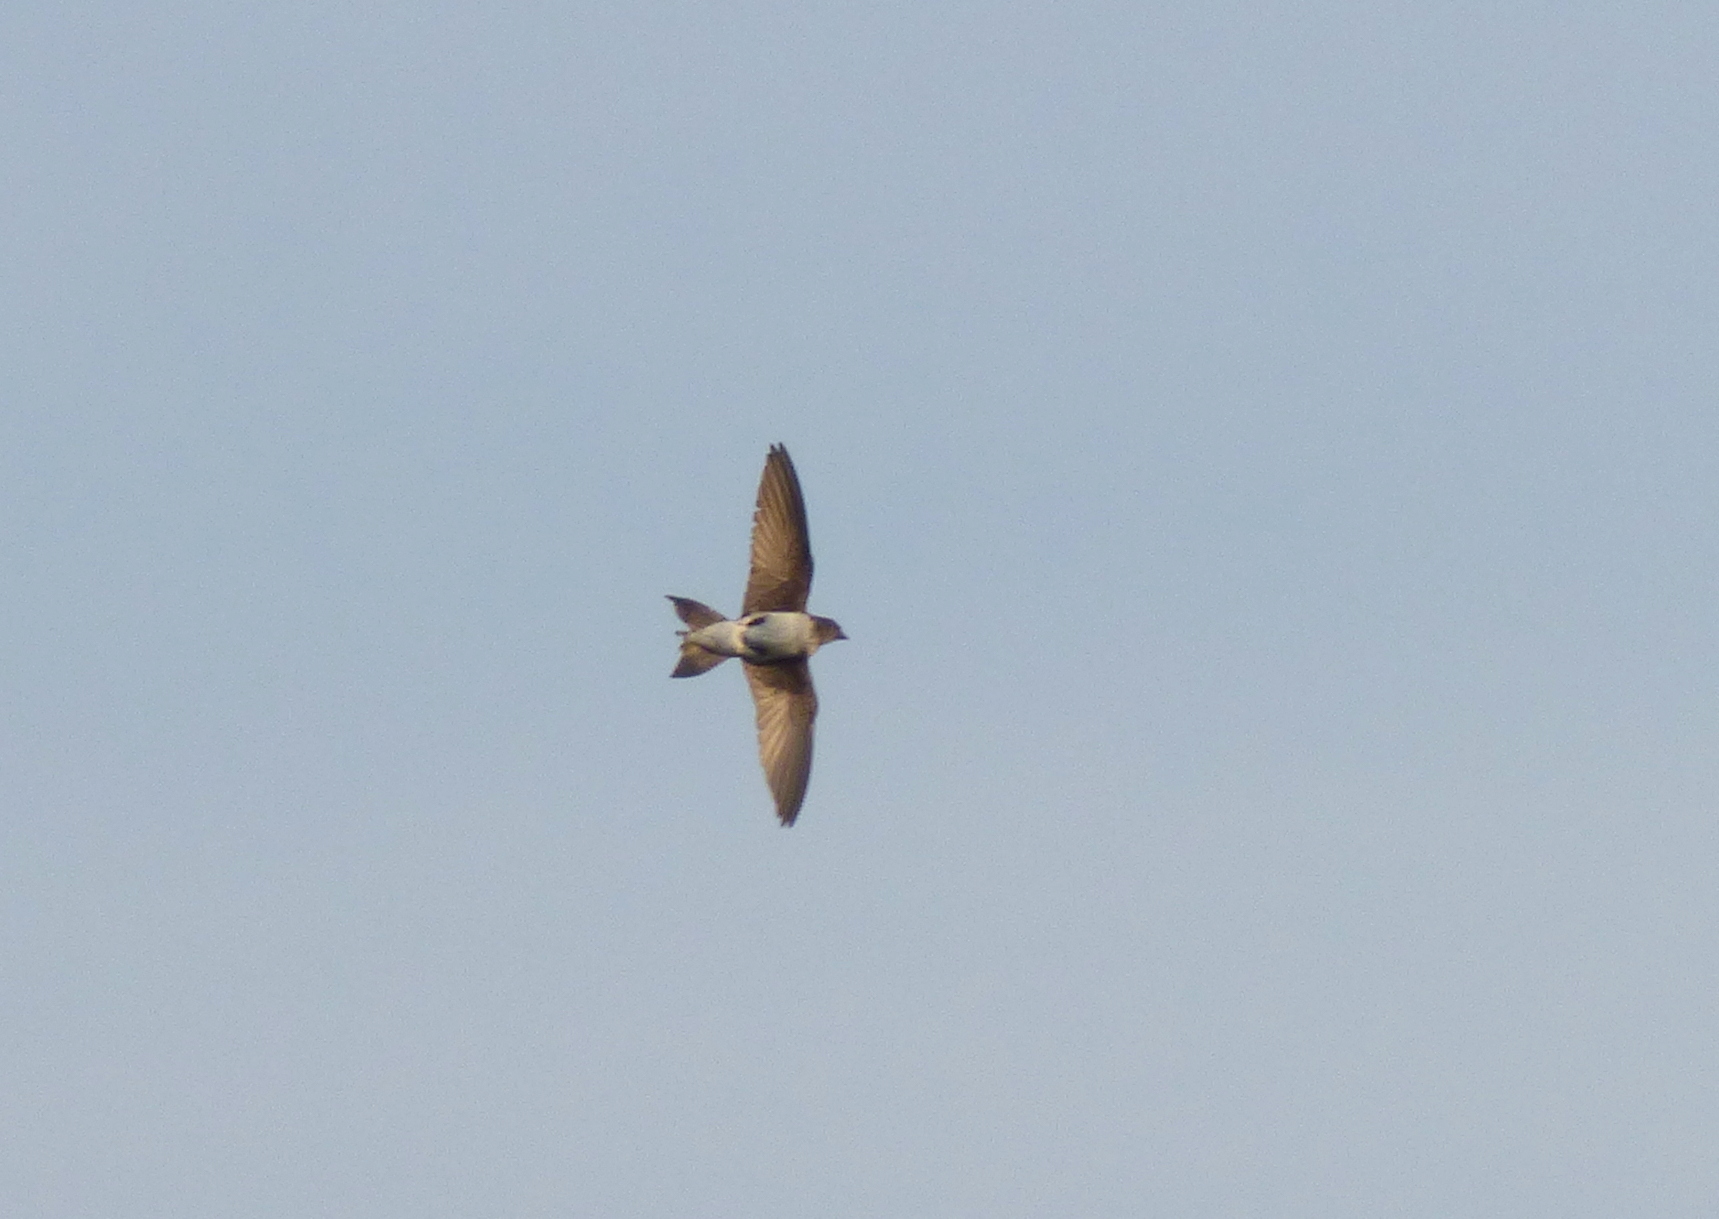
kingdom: Animalia
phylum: Chordata
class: Aves
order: Passeriformes
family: Hirundinidae
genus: Progne
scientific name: Progne chalybea
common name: Grey-breasted martin
